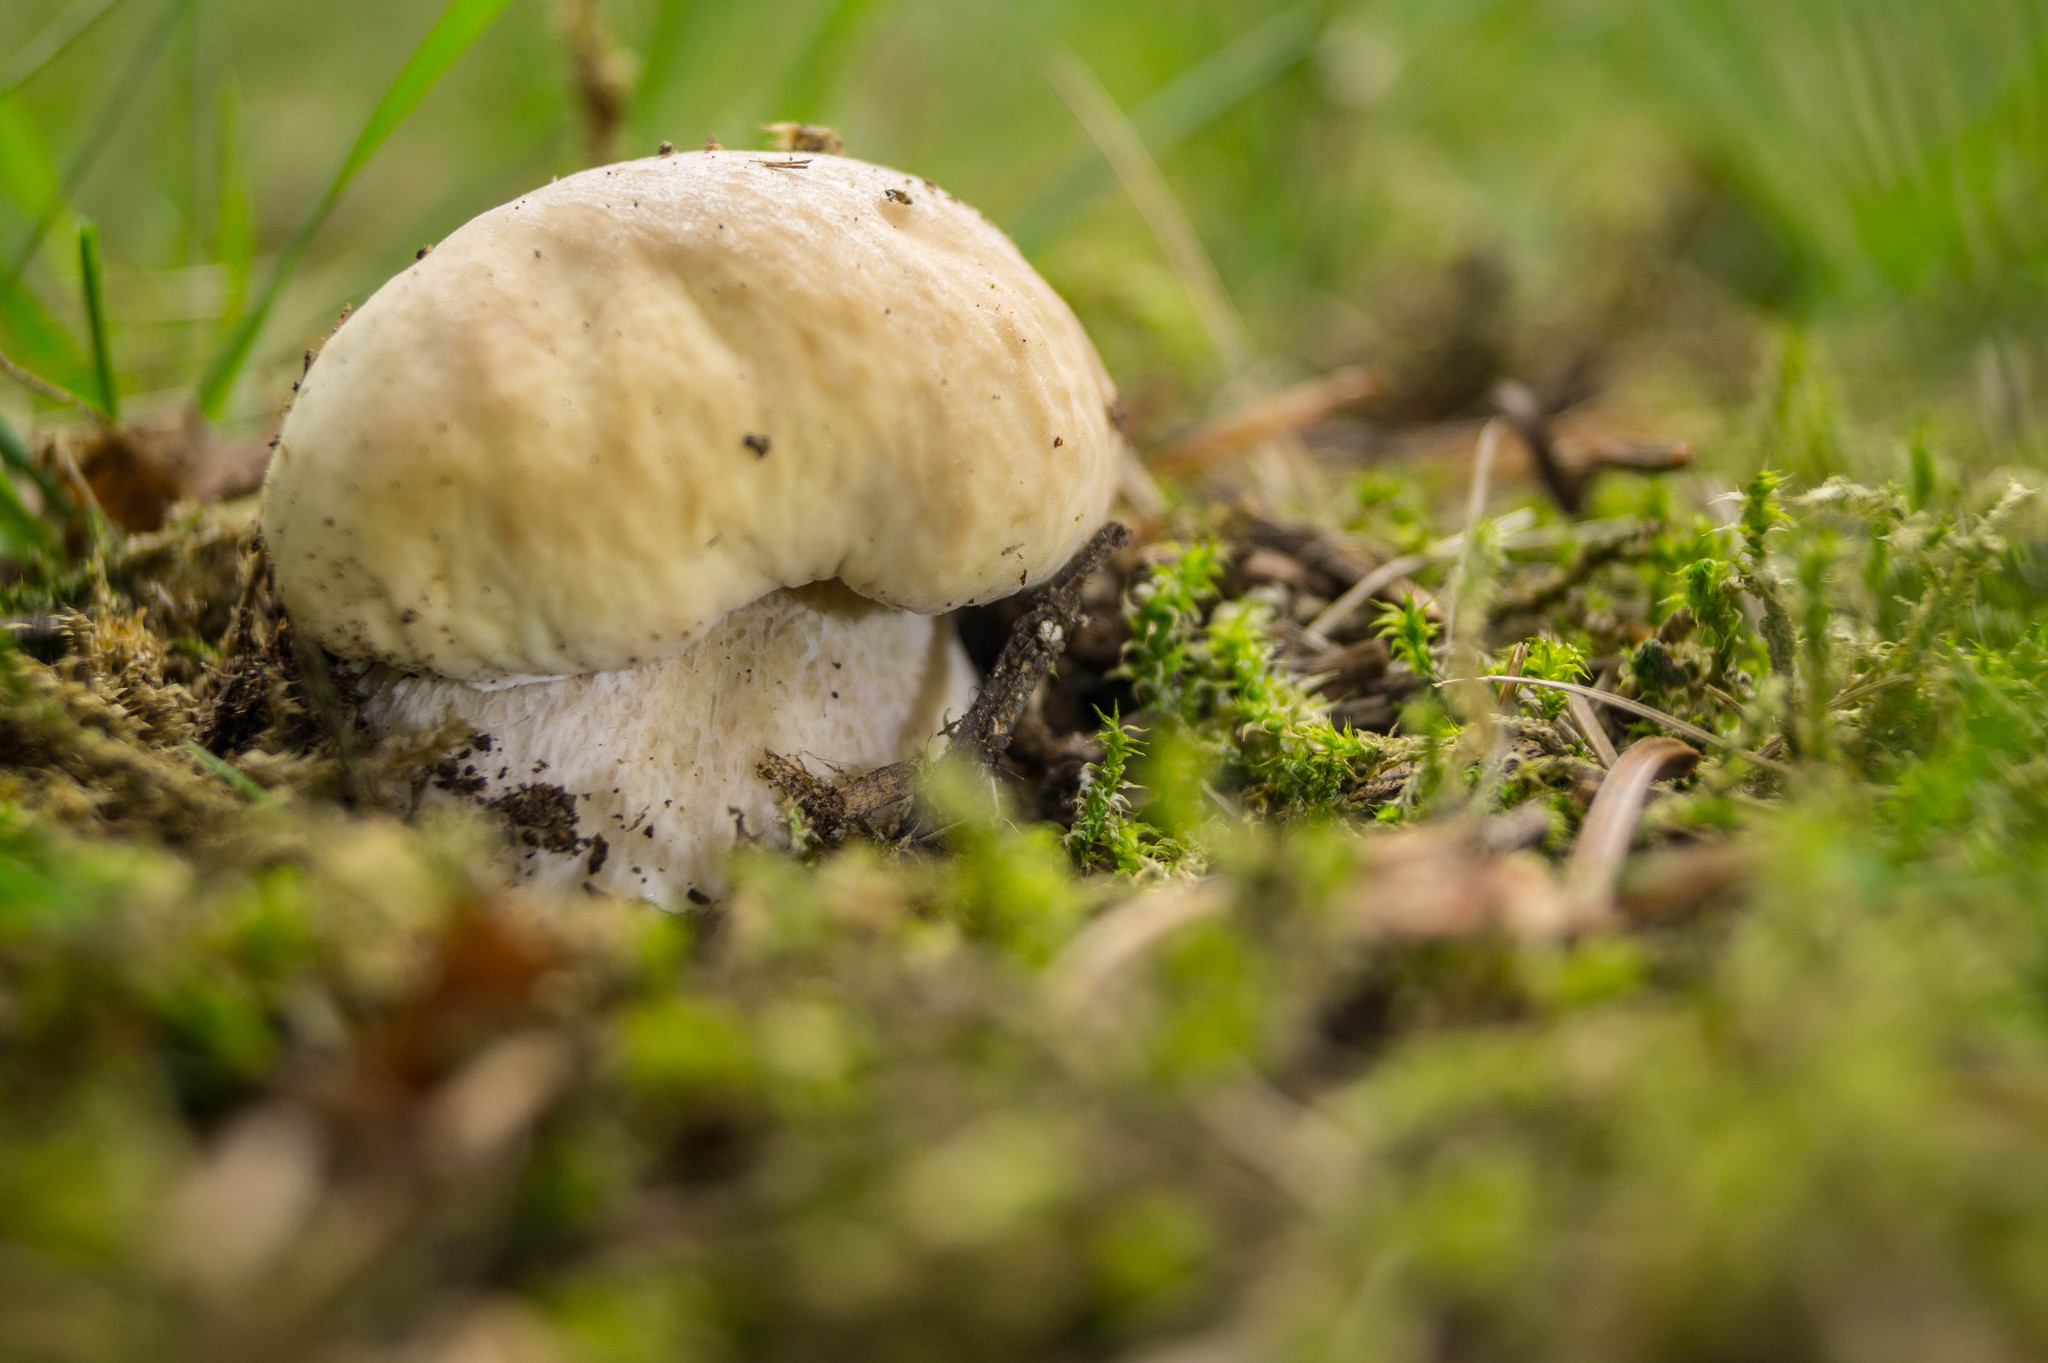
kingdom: Fungi
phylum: Basidiomycota
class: Agaricomycetes
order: Boletales
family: Boletaceae
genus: Boletus
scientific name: Boletus edulis
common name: Cep
